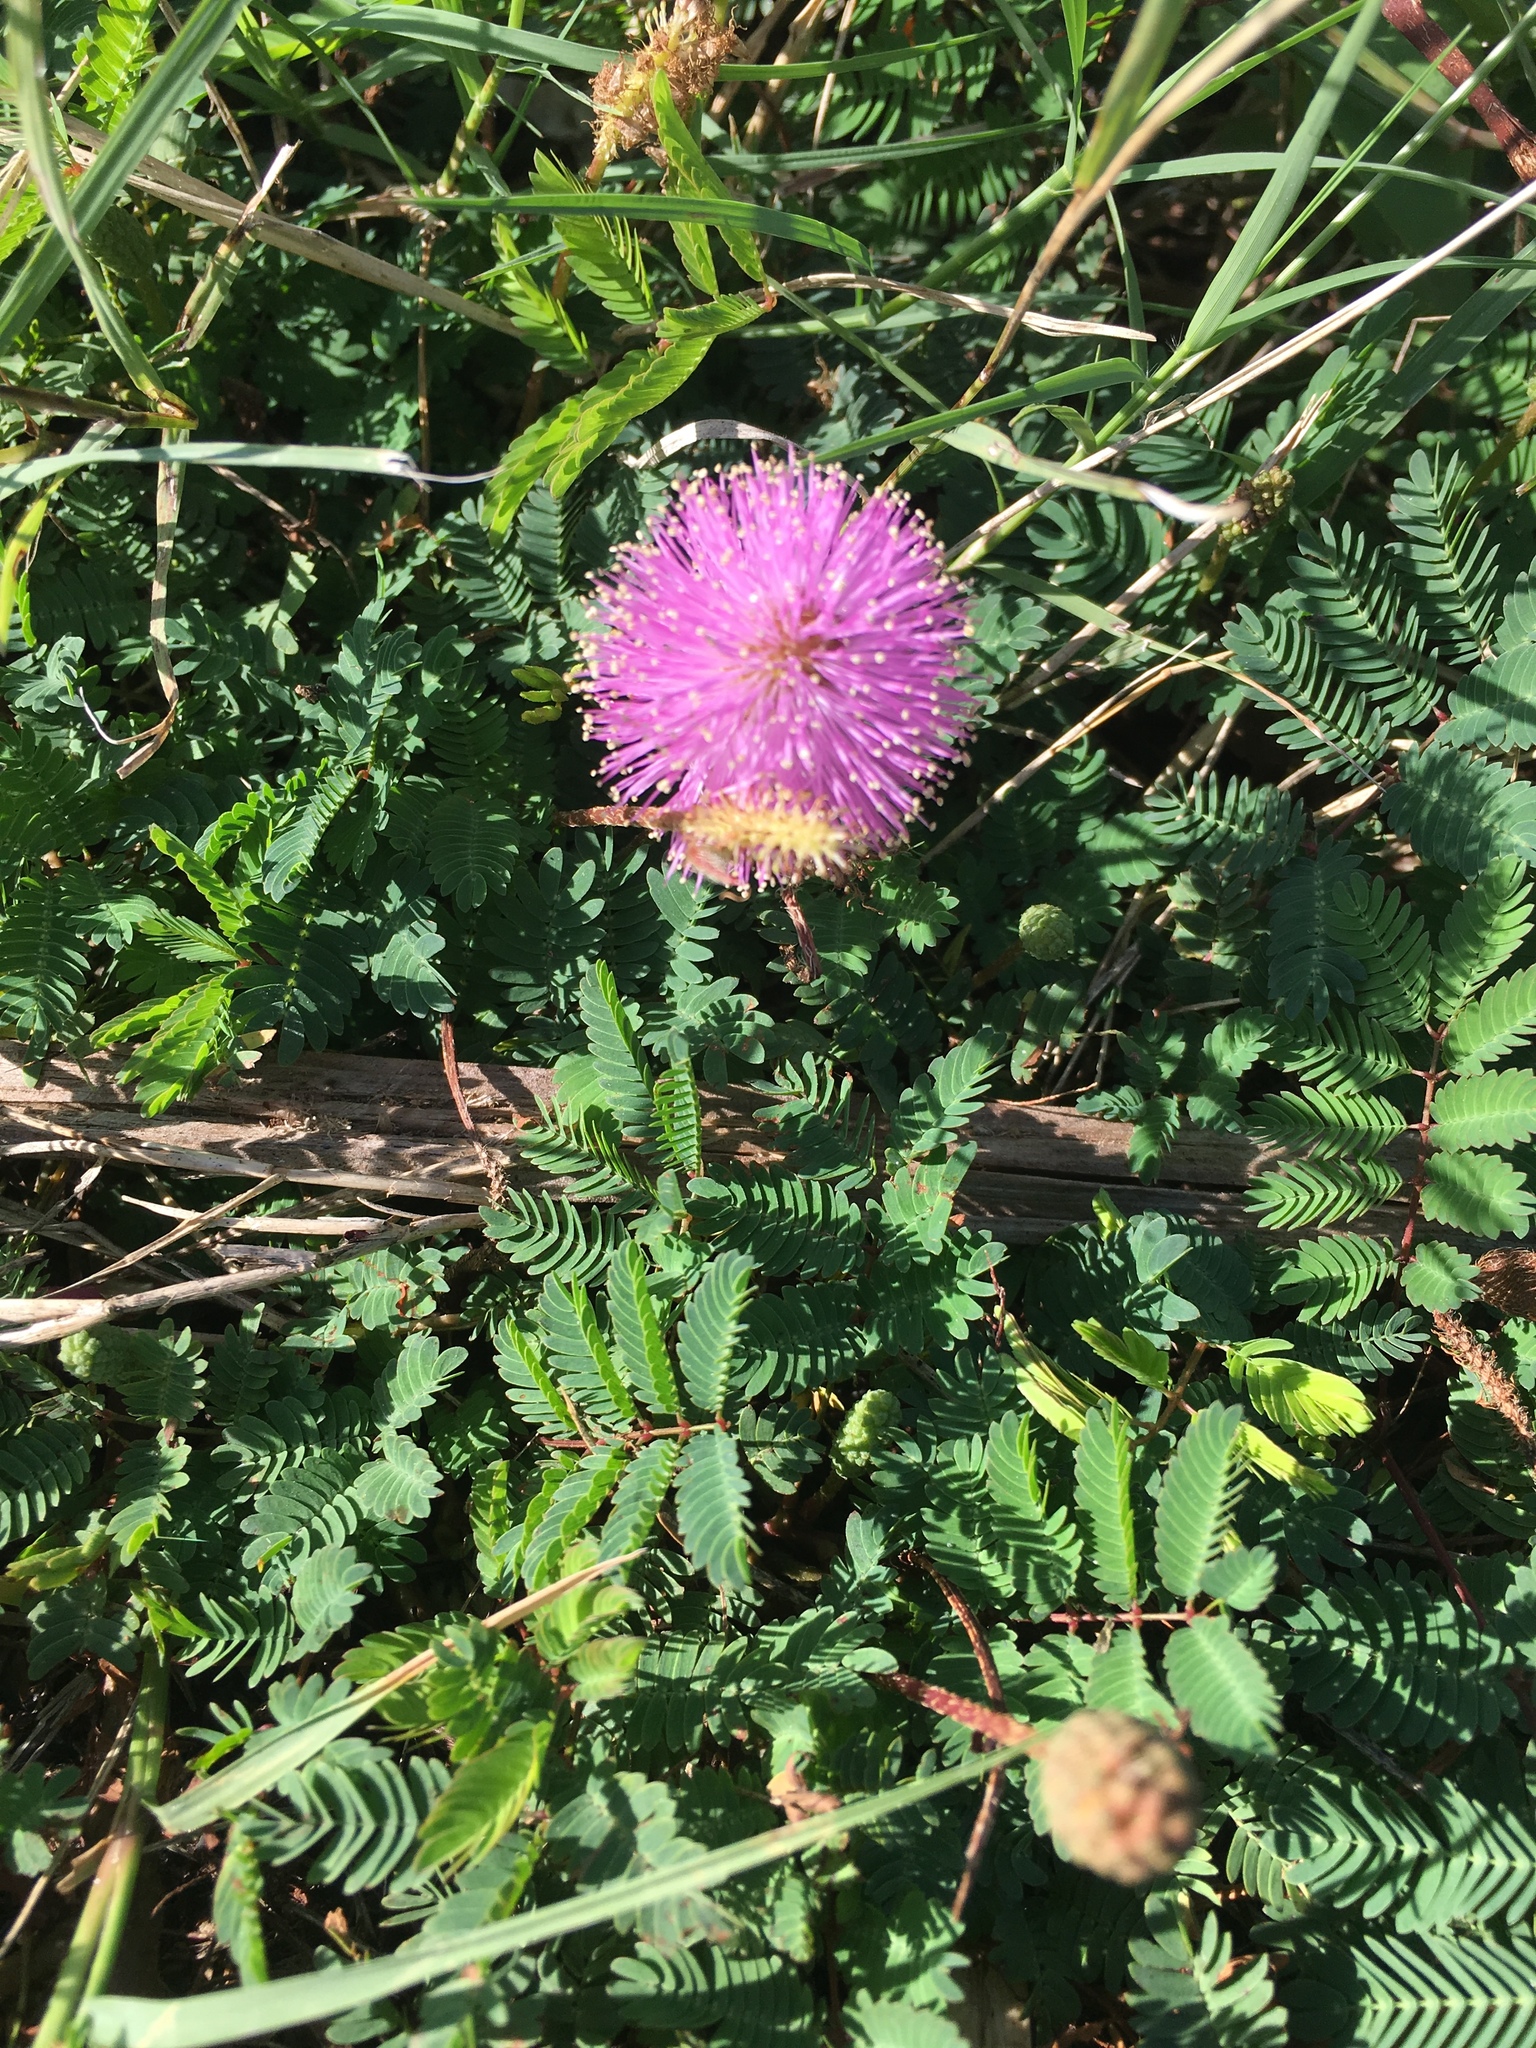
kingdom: Plantae
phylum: Tracheophyta
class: Magnoliopsida
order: Fabales
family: Fabaceae
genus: Mimosa
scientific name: Mimosa strigillosa
